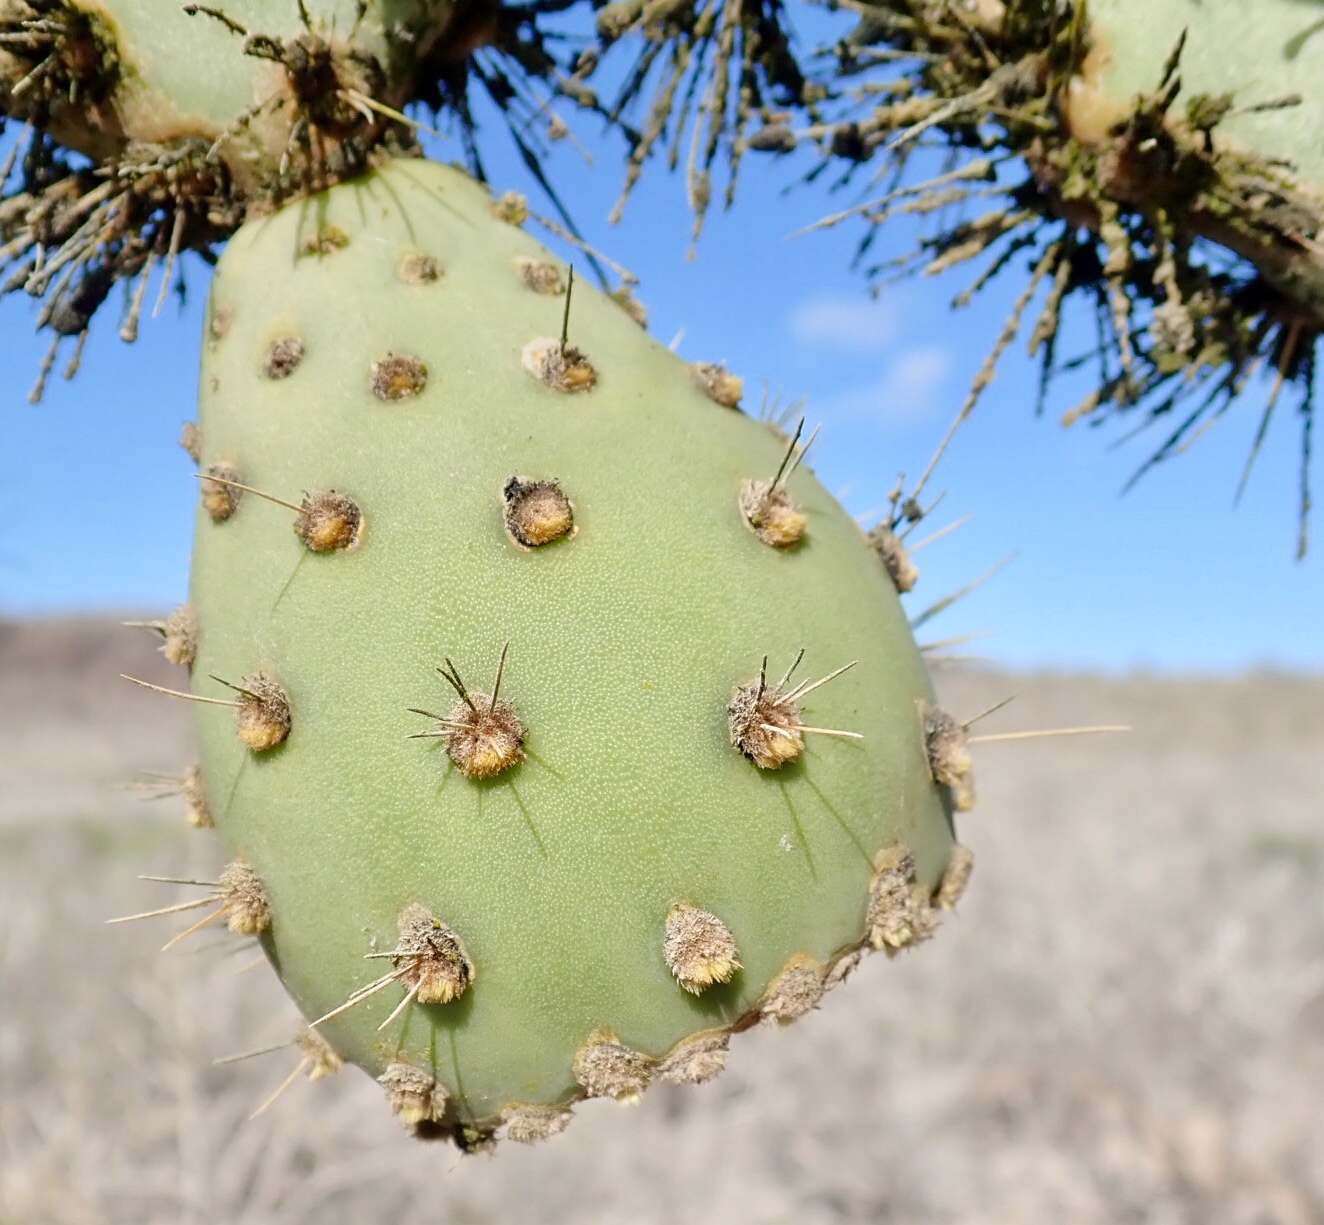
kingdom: Plantae
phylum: Tracheophyta
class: Magnoliopsida
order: Caryophyllales
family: Cactaceae
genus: Opuntia
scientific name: Opuntia galapageia
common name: Galápagos prickly pear
